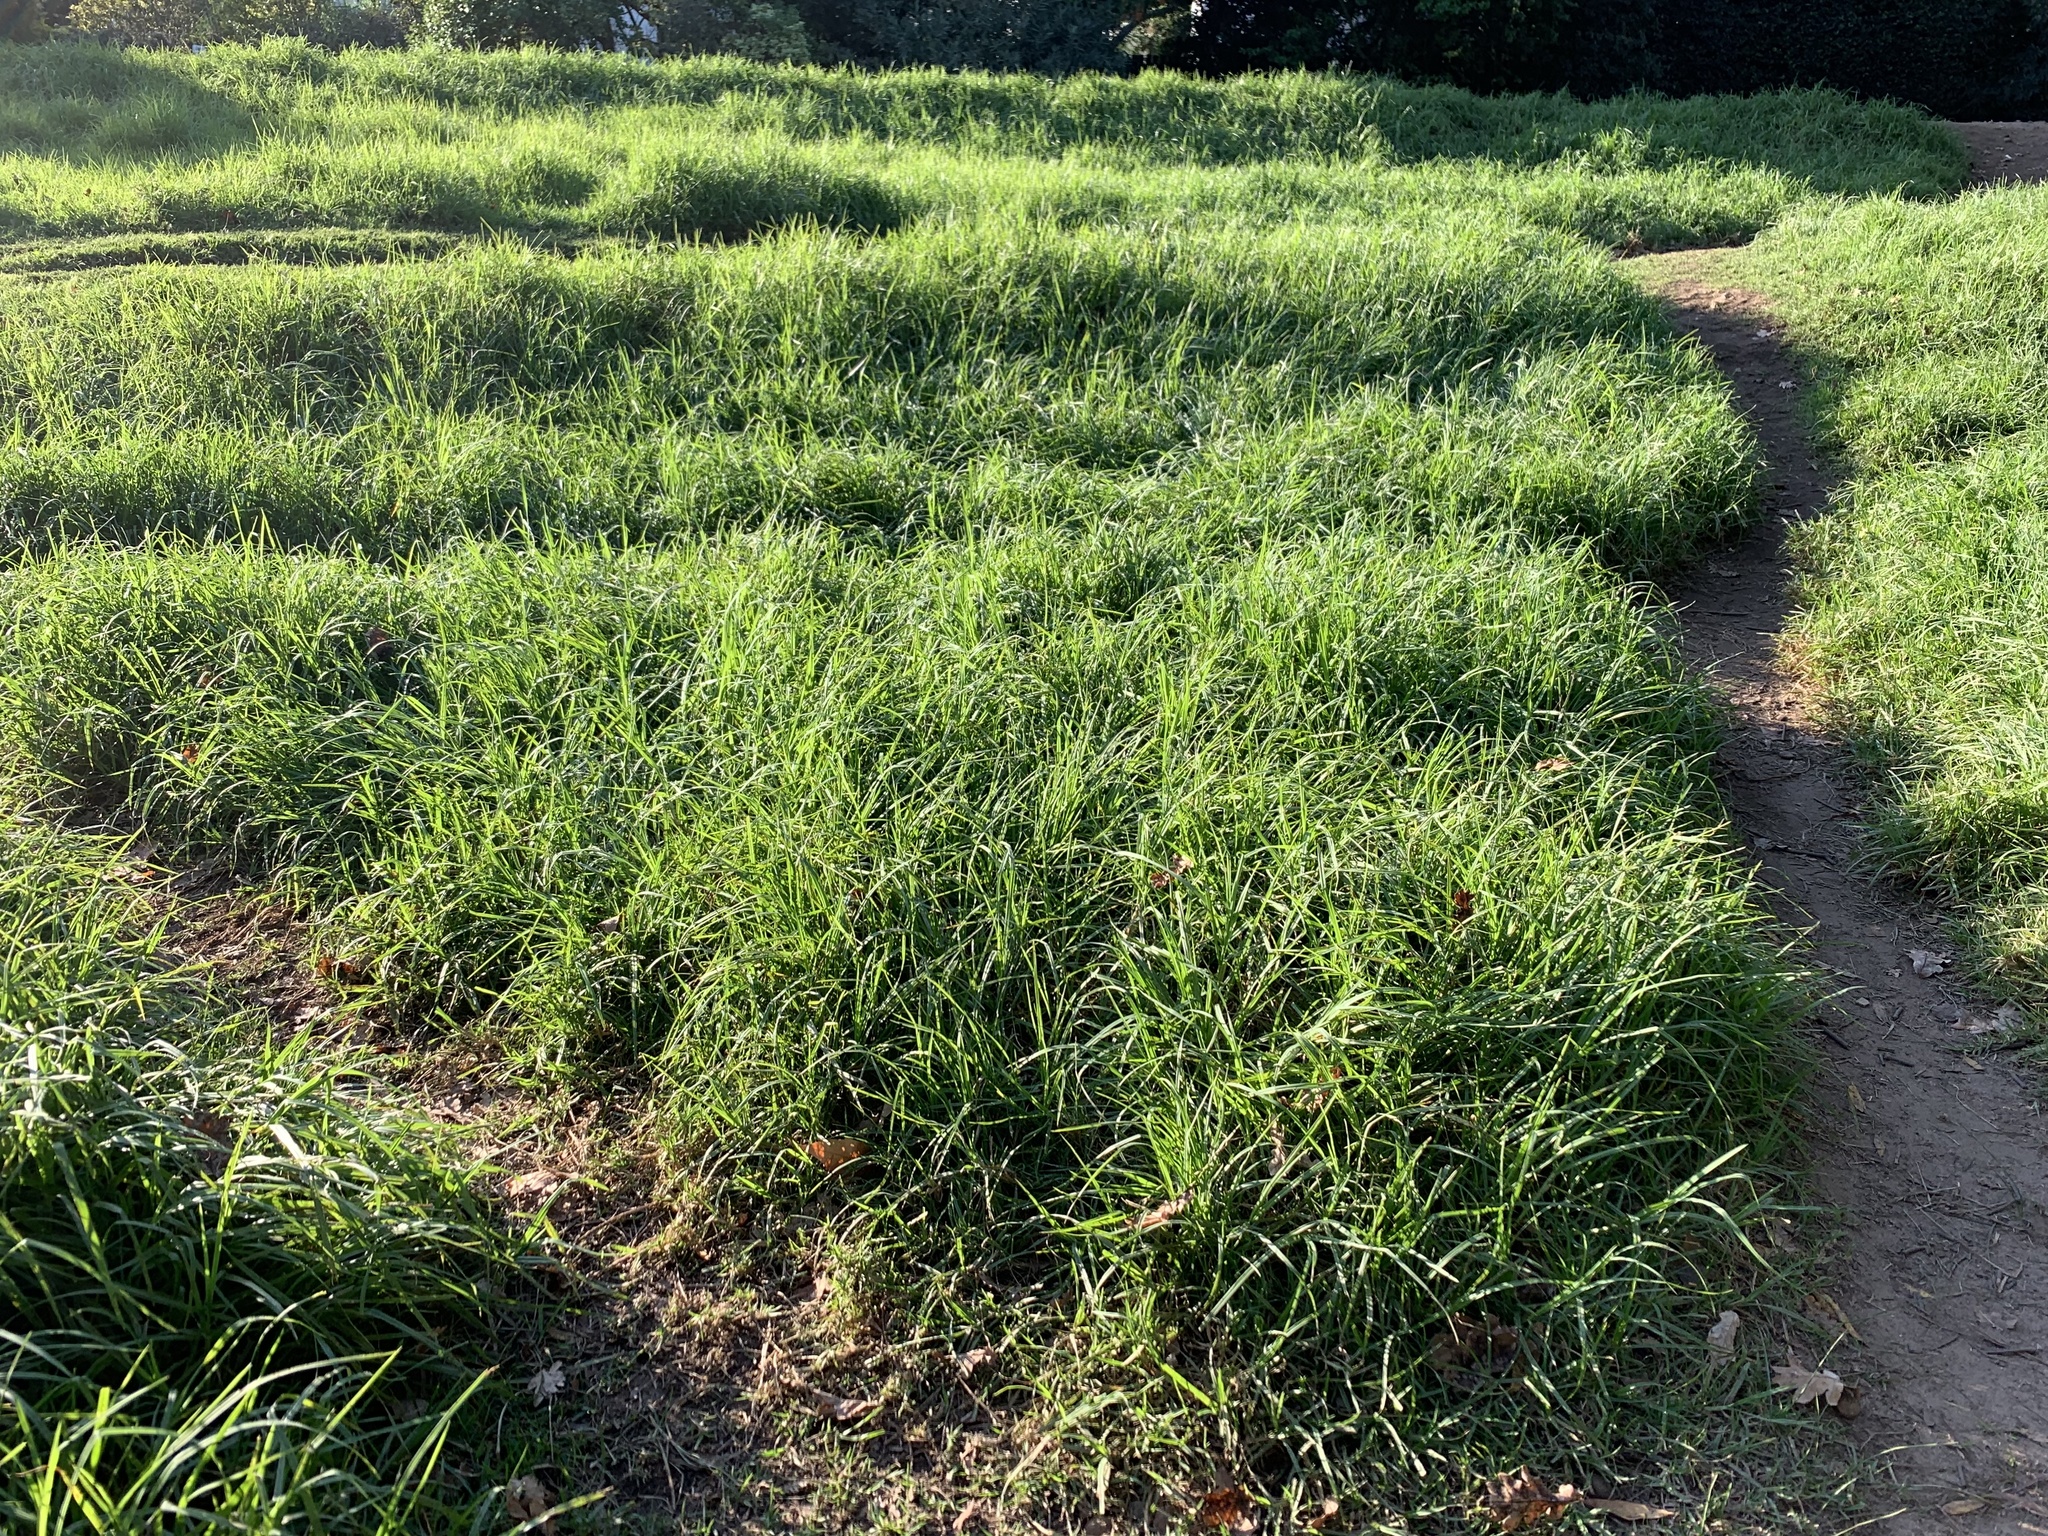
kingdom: Plantae
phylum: Tracheophyta
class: Liliopsida
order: Poales
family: Poaceae
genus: Cenchrus
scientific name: Cenchrus clandestinus
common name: Kikuyugrass
